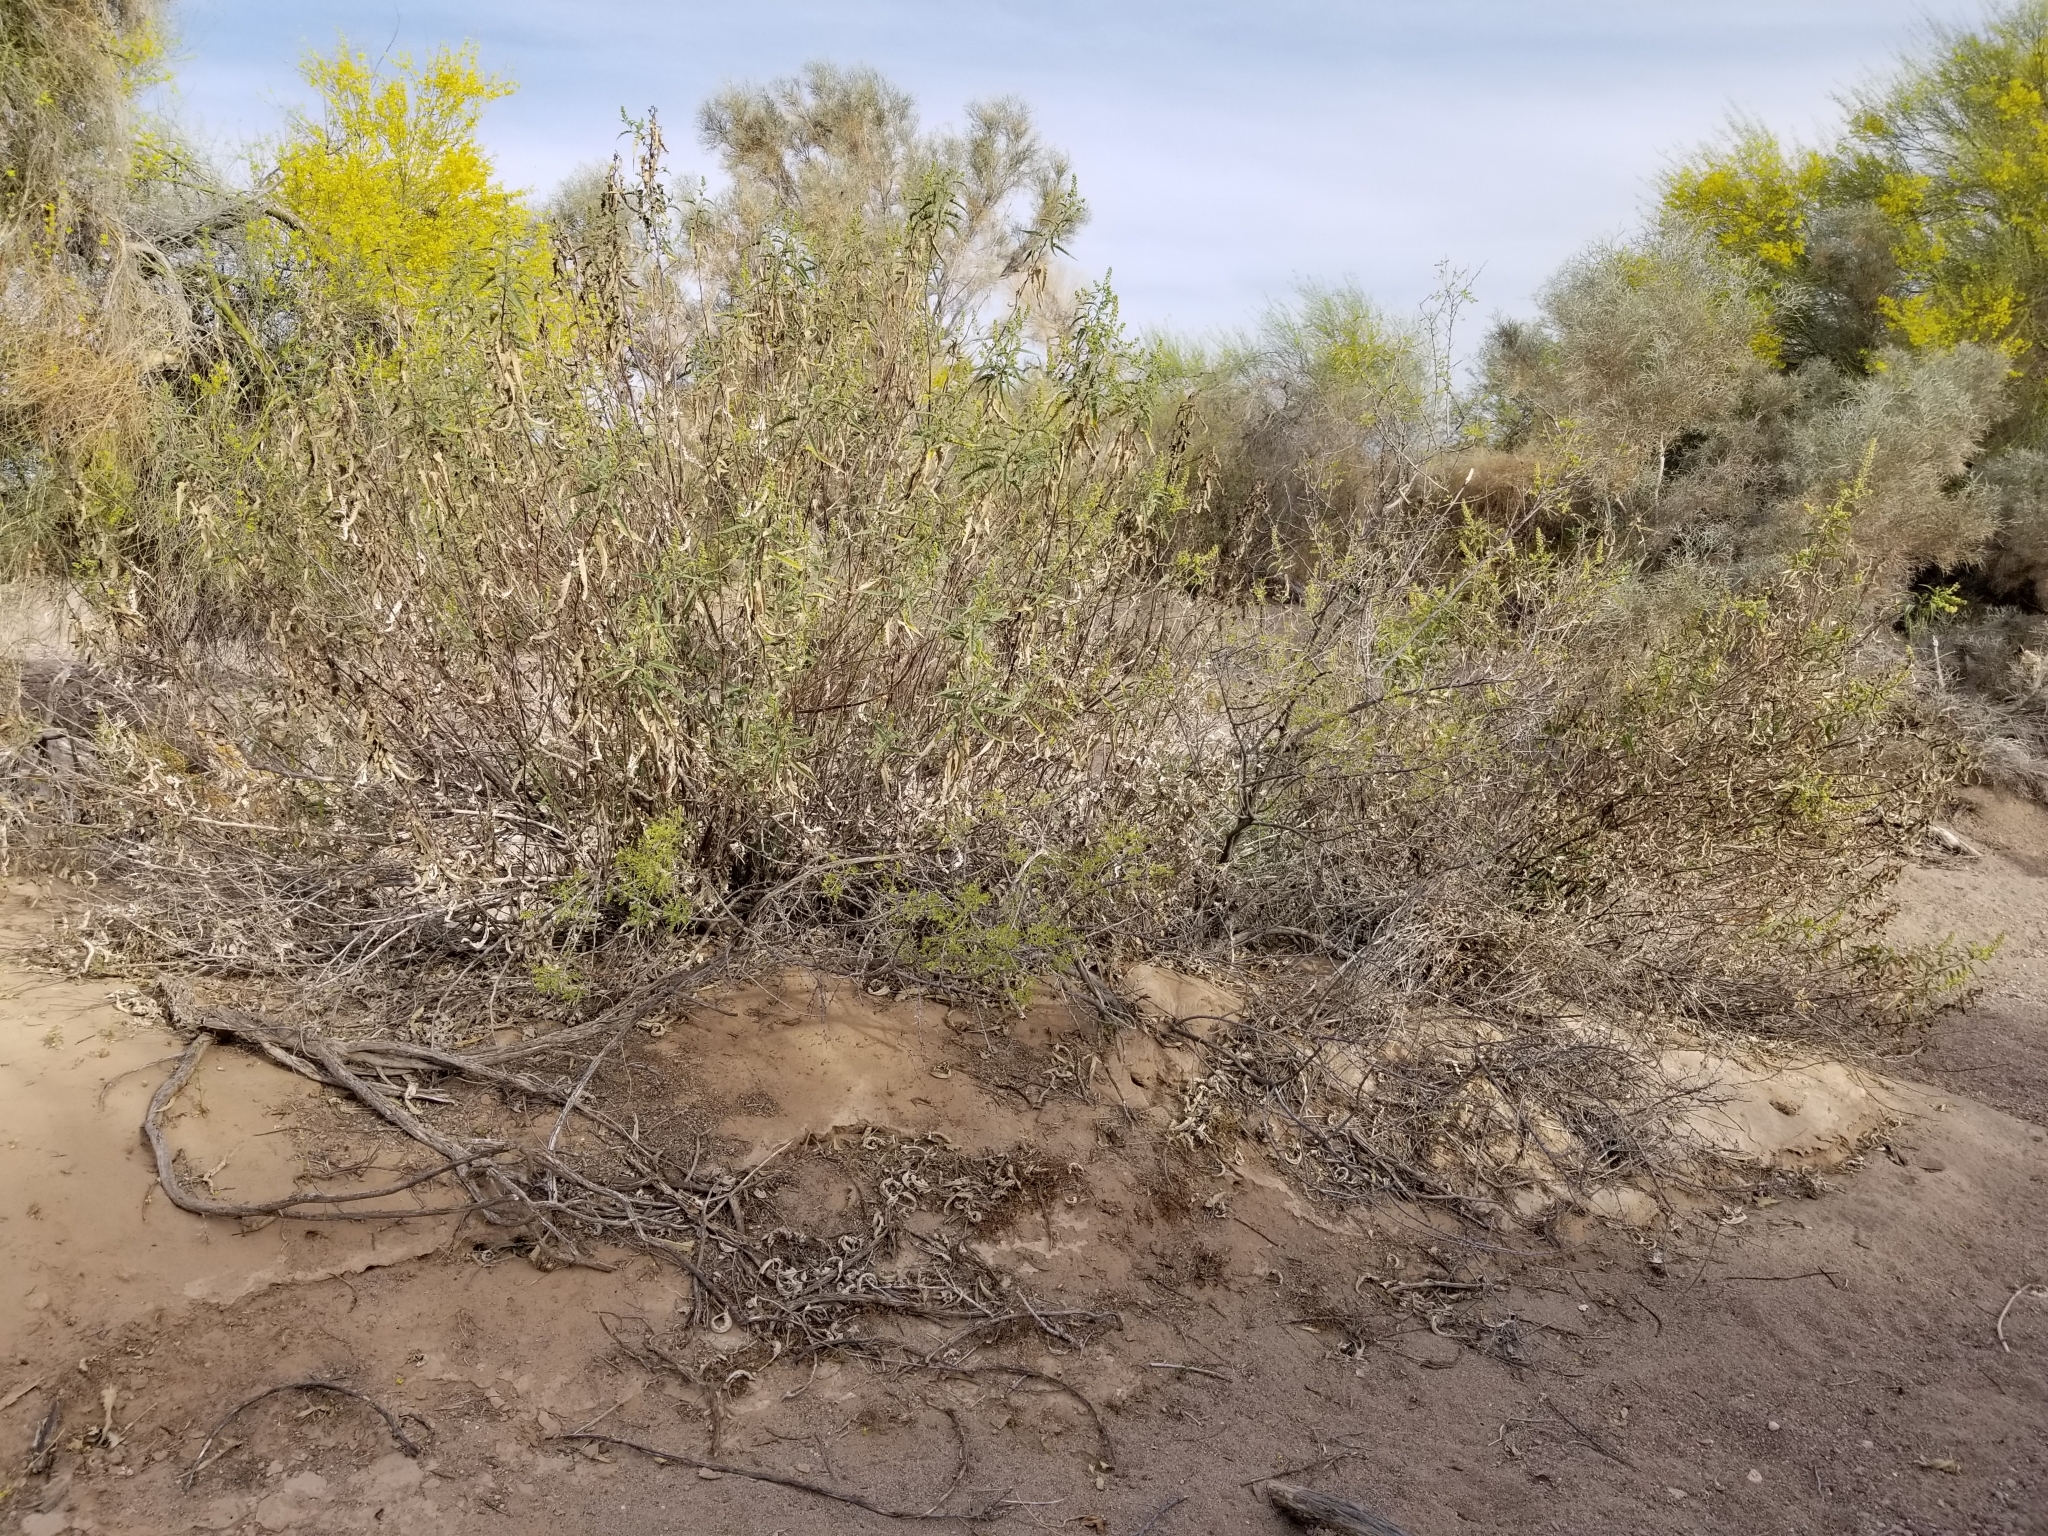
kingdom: Plantae
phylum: Tracheophyta
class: Magnoliopsida
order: Asterales
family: Asteraceae
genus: Ambrosia
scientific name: Ambrosia ambrosioides
